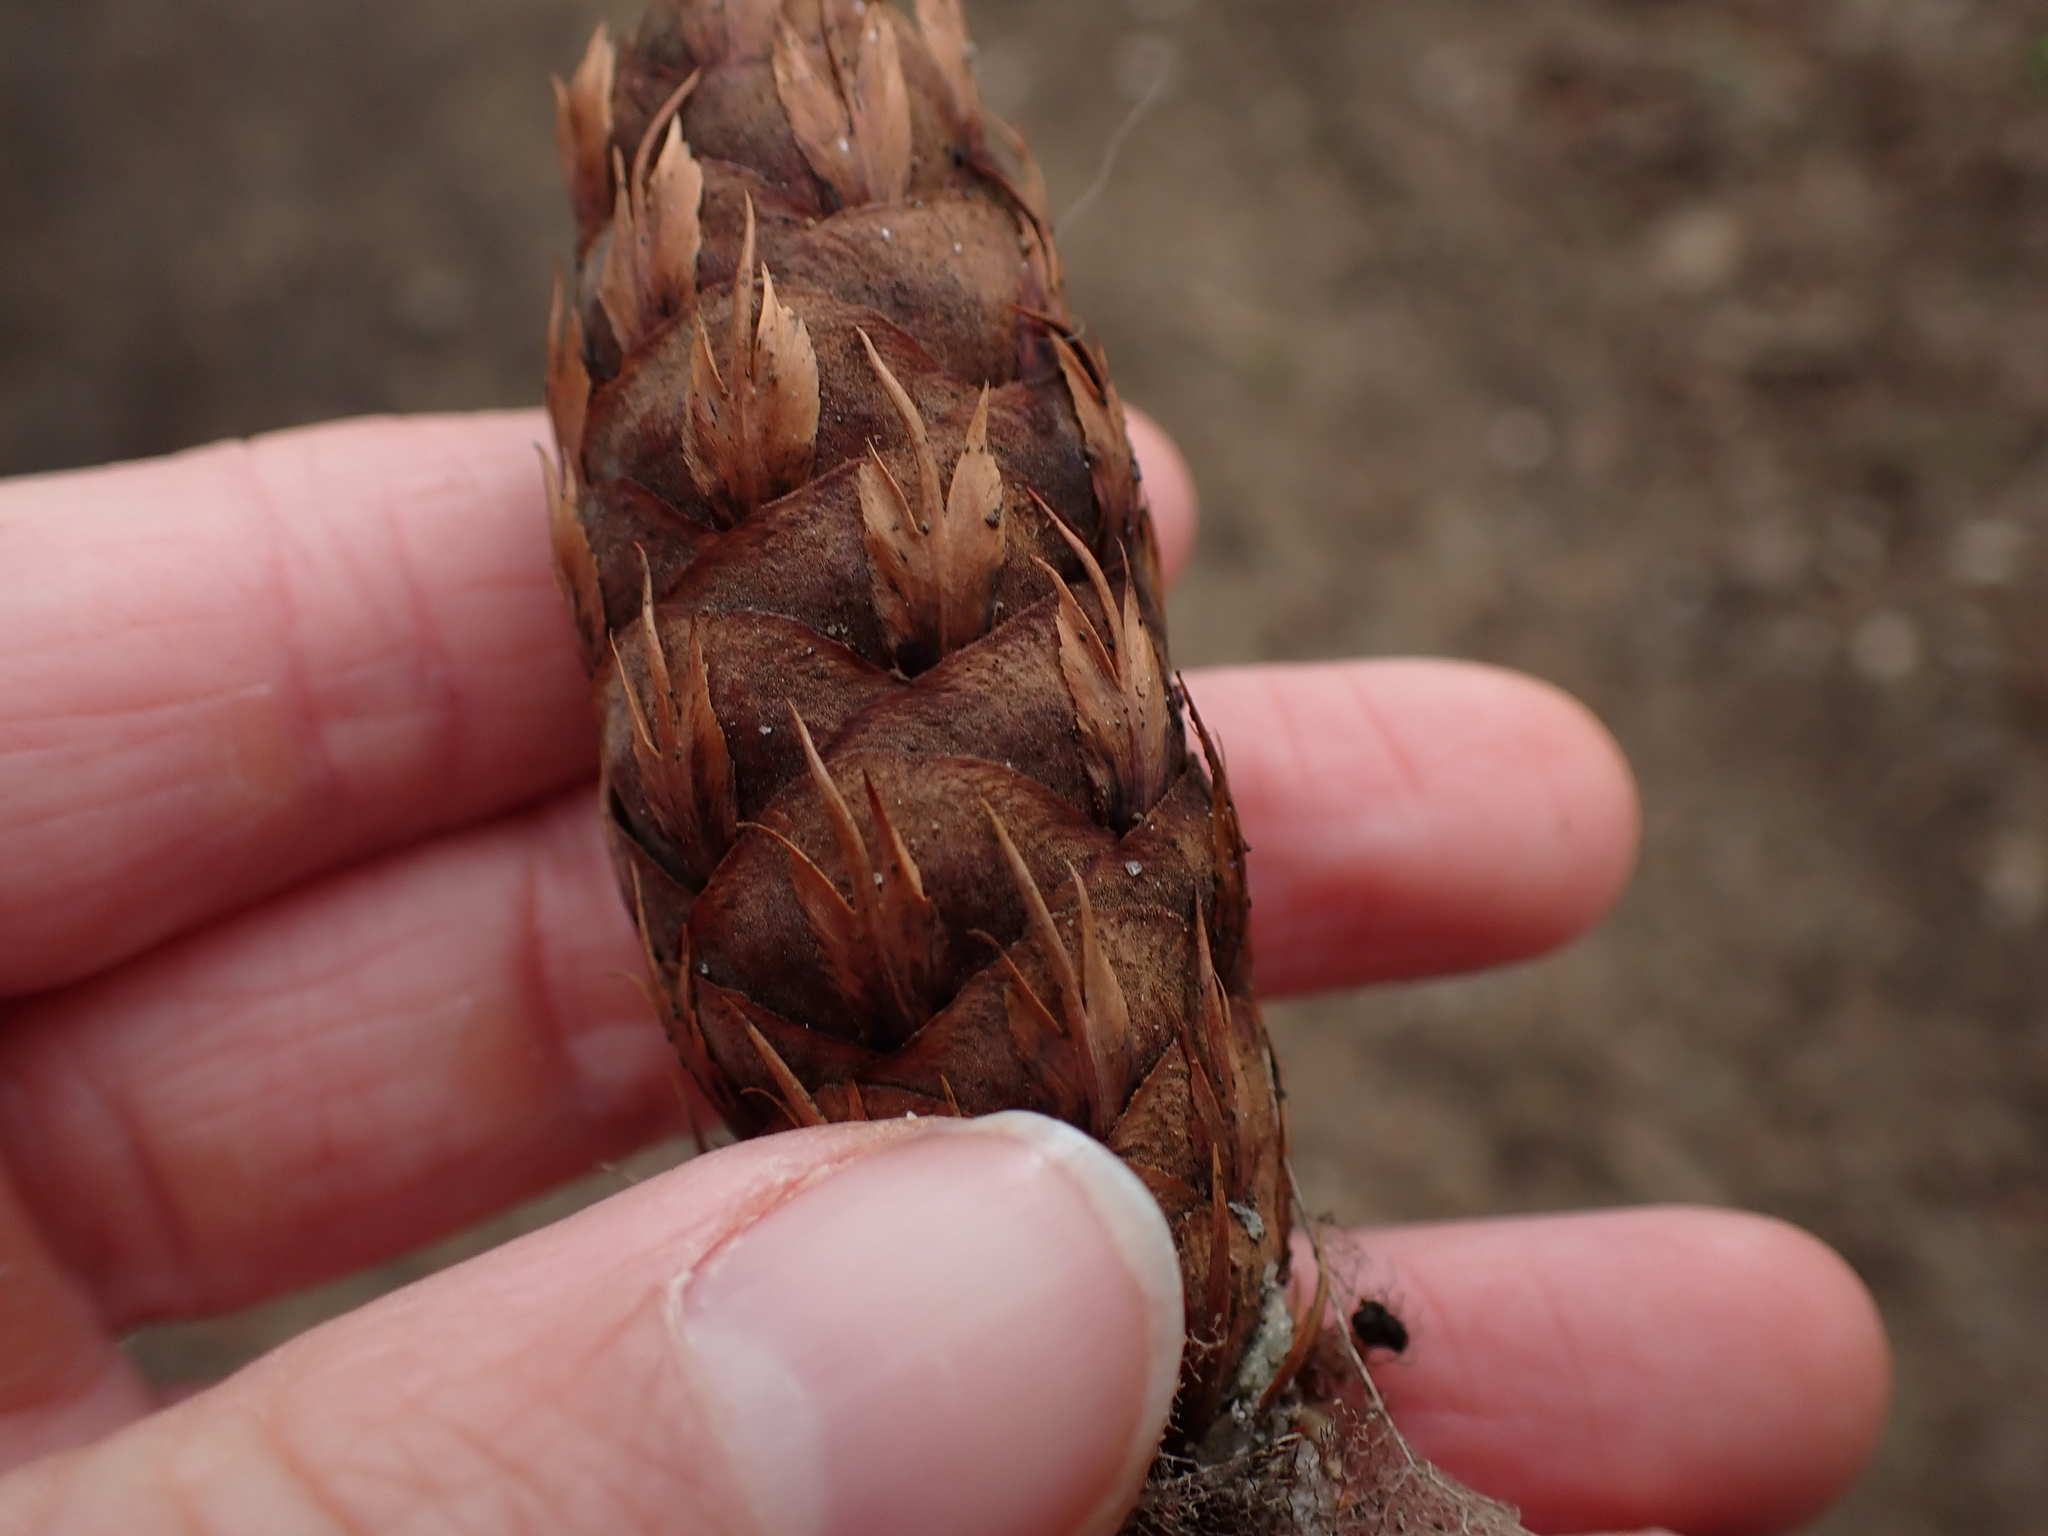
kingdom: Plantae
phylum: Tracheophyta
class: Pinopsida
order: Pinales
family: Pinaceae
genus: Pseudotsuga
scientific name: Pseudotsuga menziesii
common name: Douglas fir
